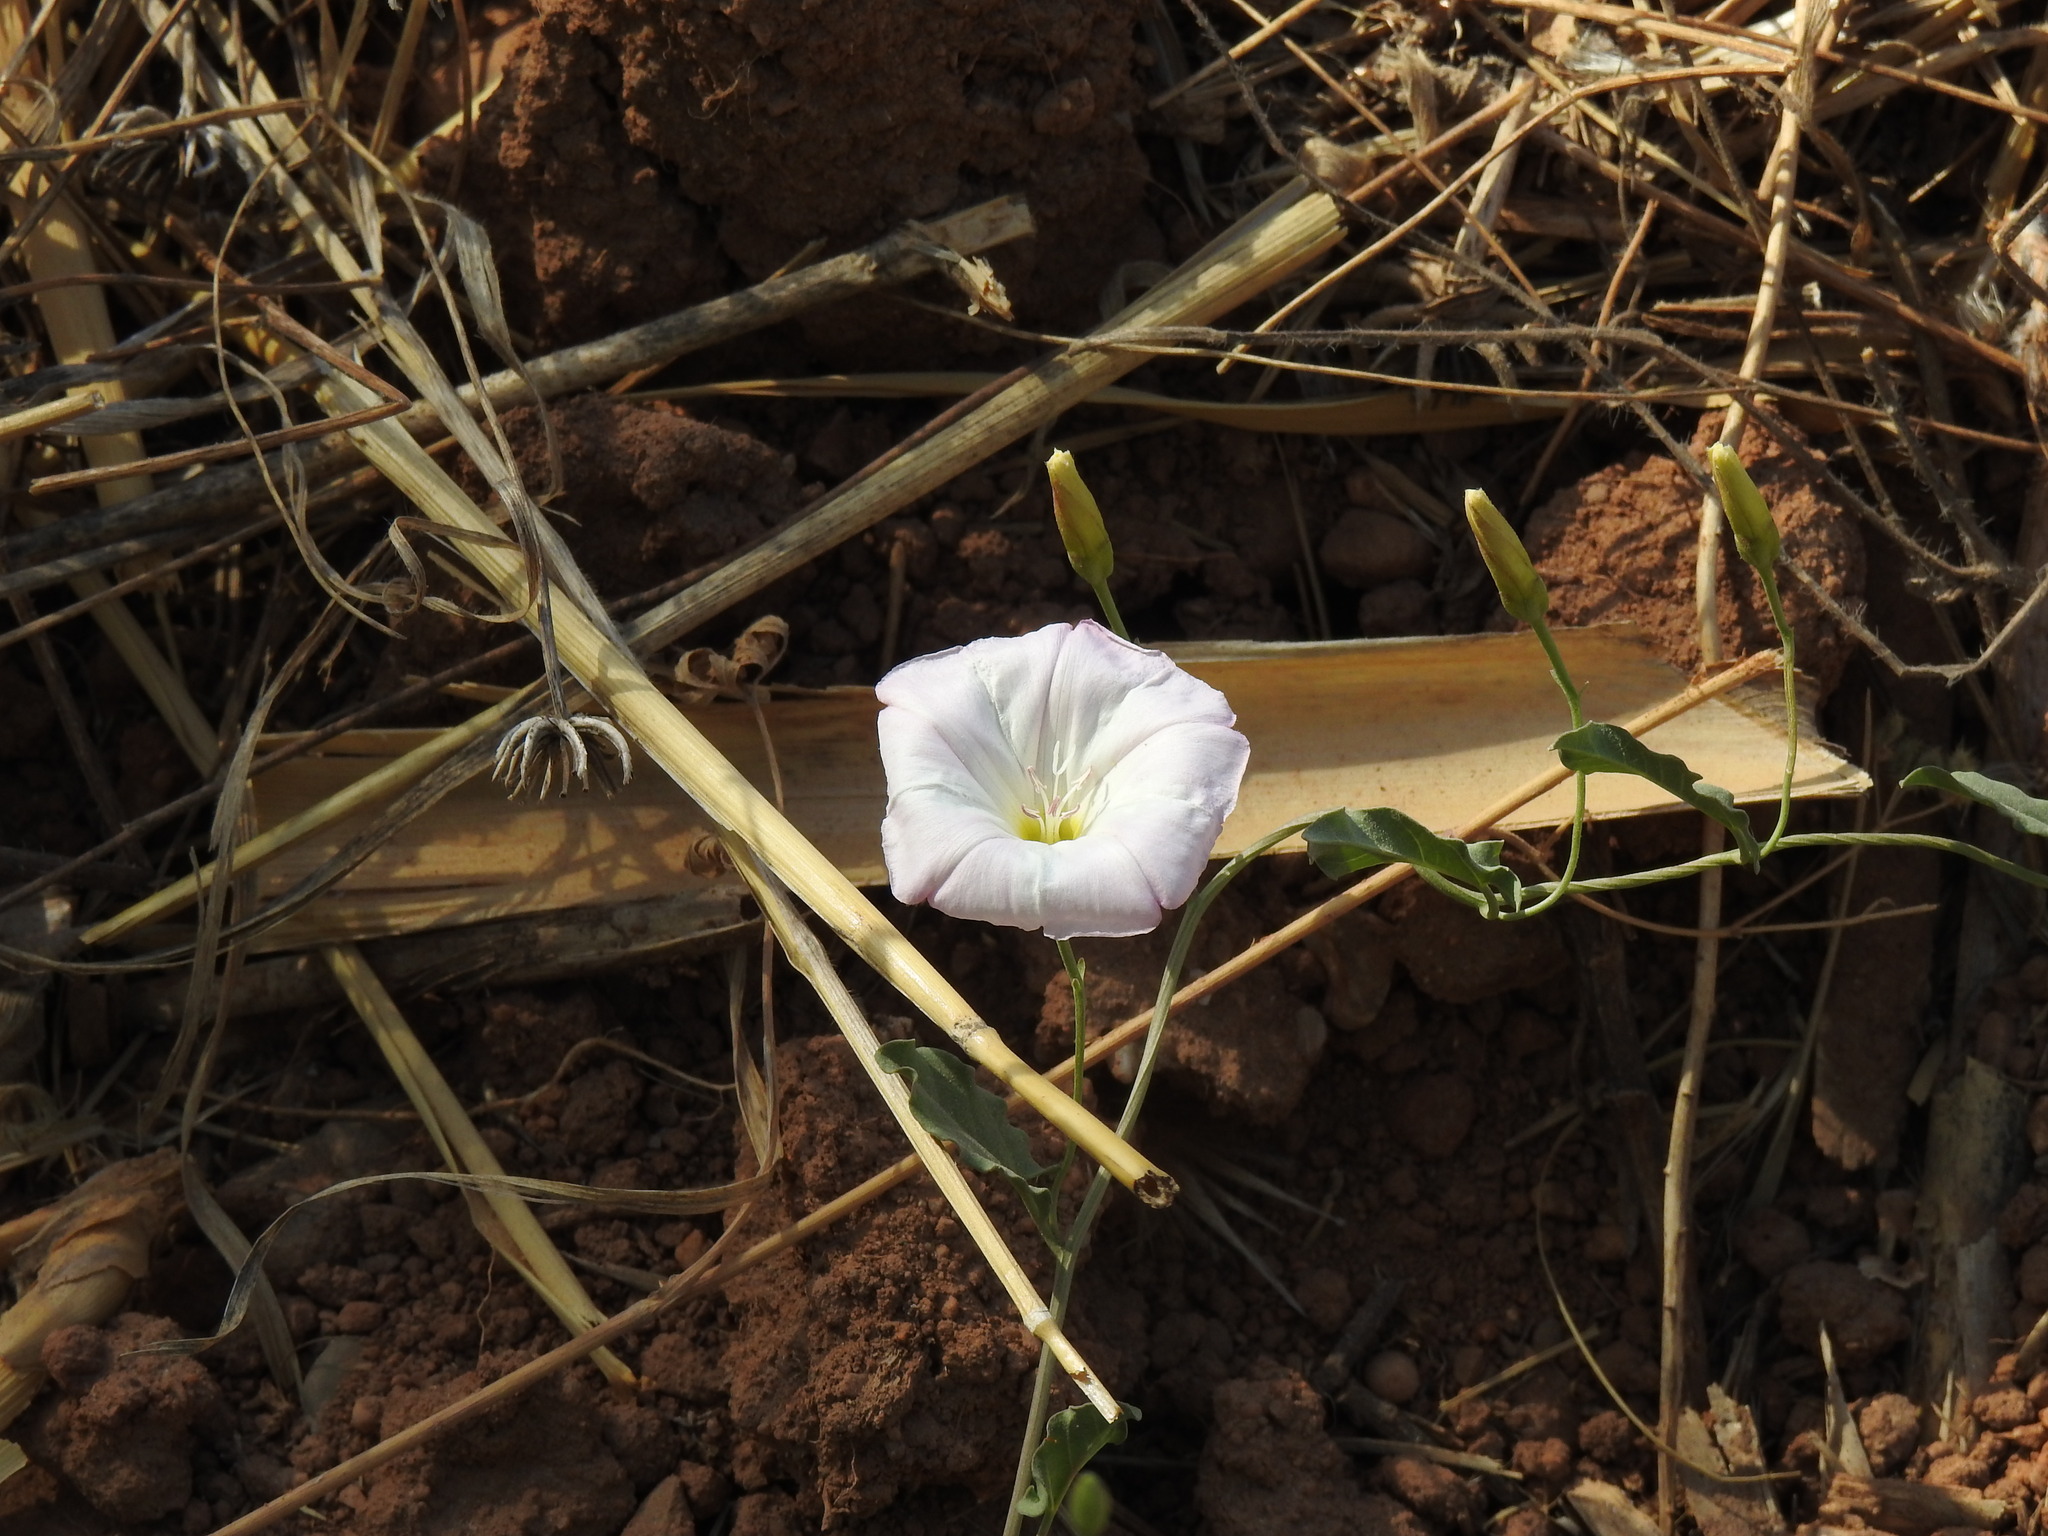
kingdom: Plantae
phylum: Tracheophyta
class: Magnoliopsida
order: Solanales
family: Convolvulaceae
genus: Convolvulus
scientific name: Convolvulus arvensis
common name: Field bindweed
